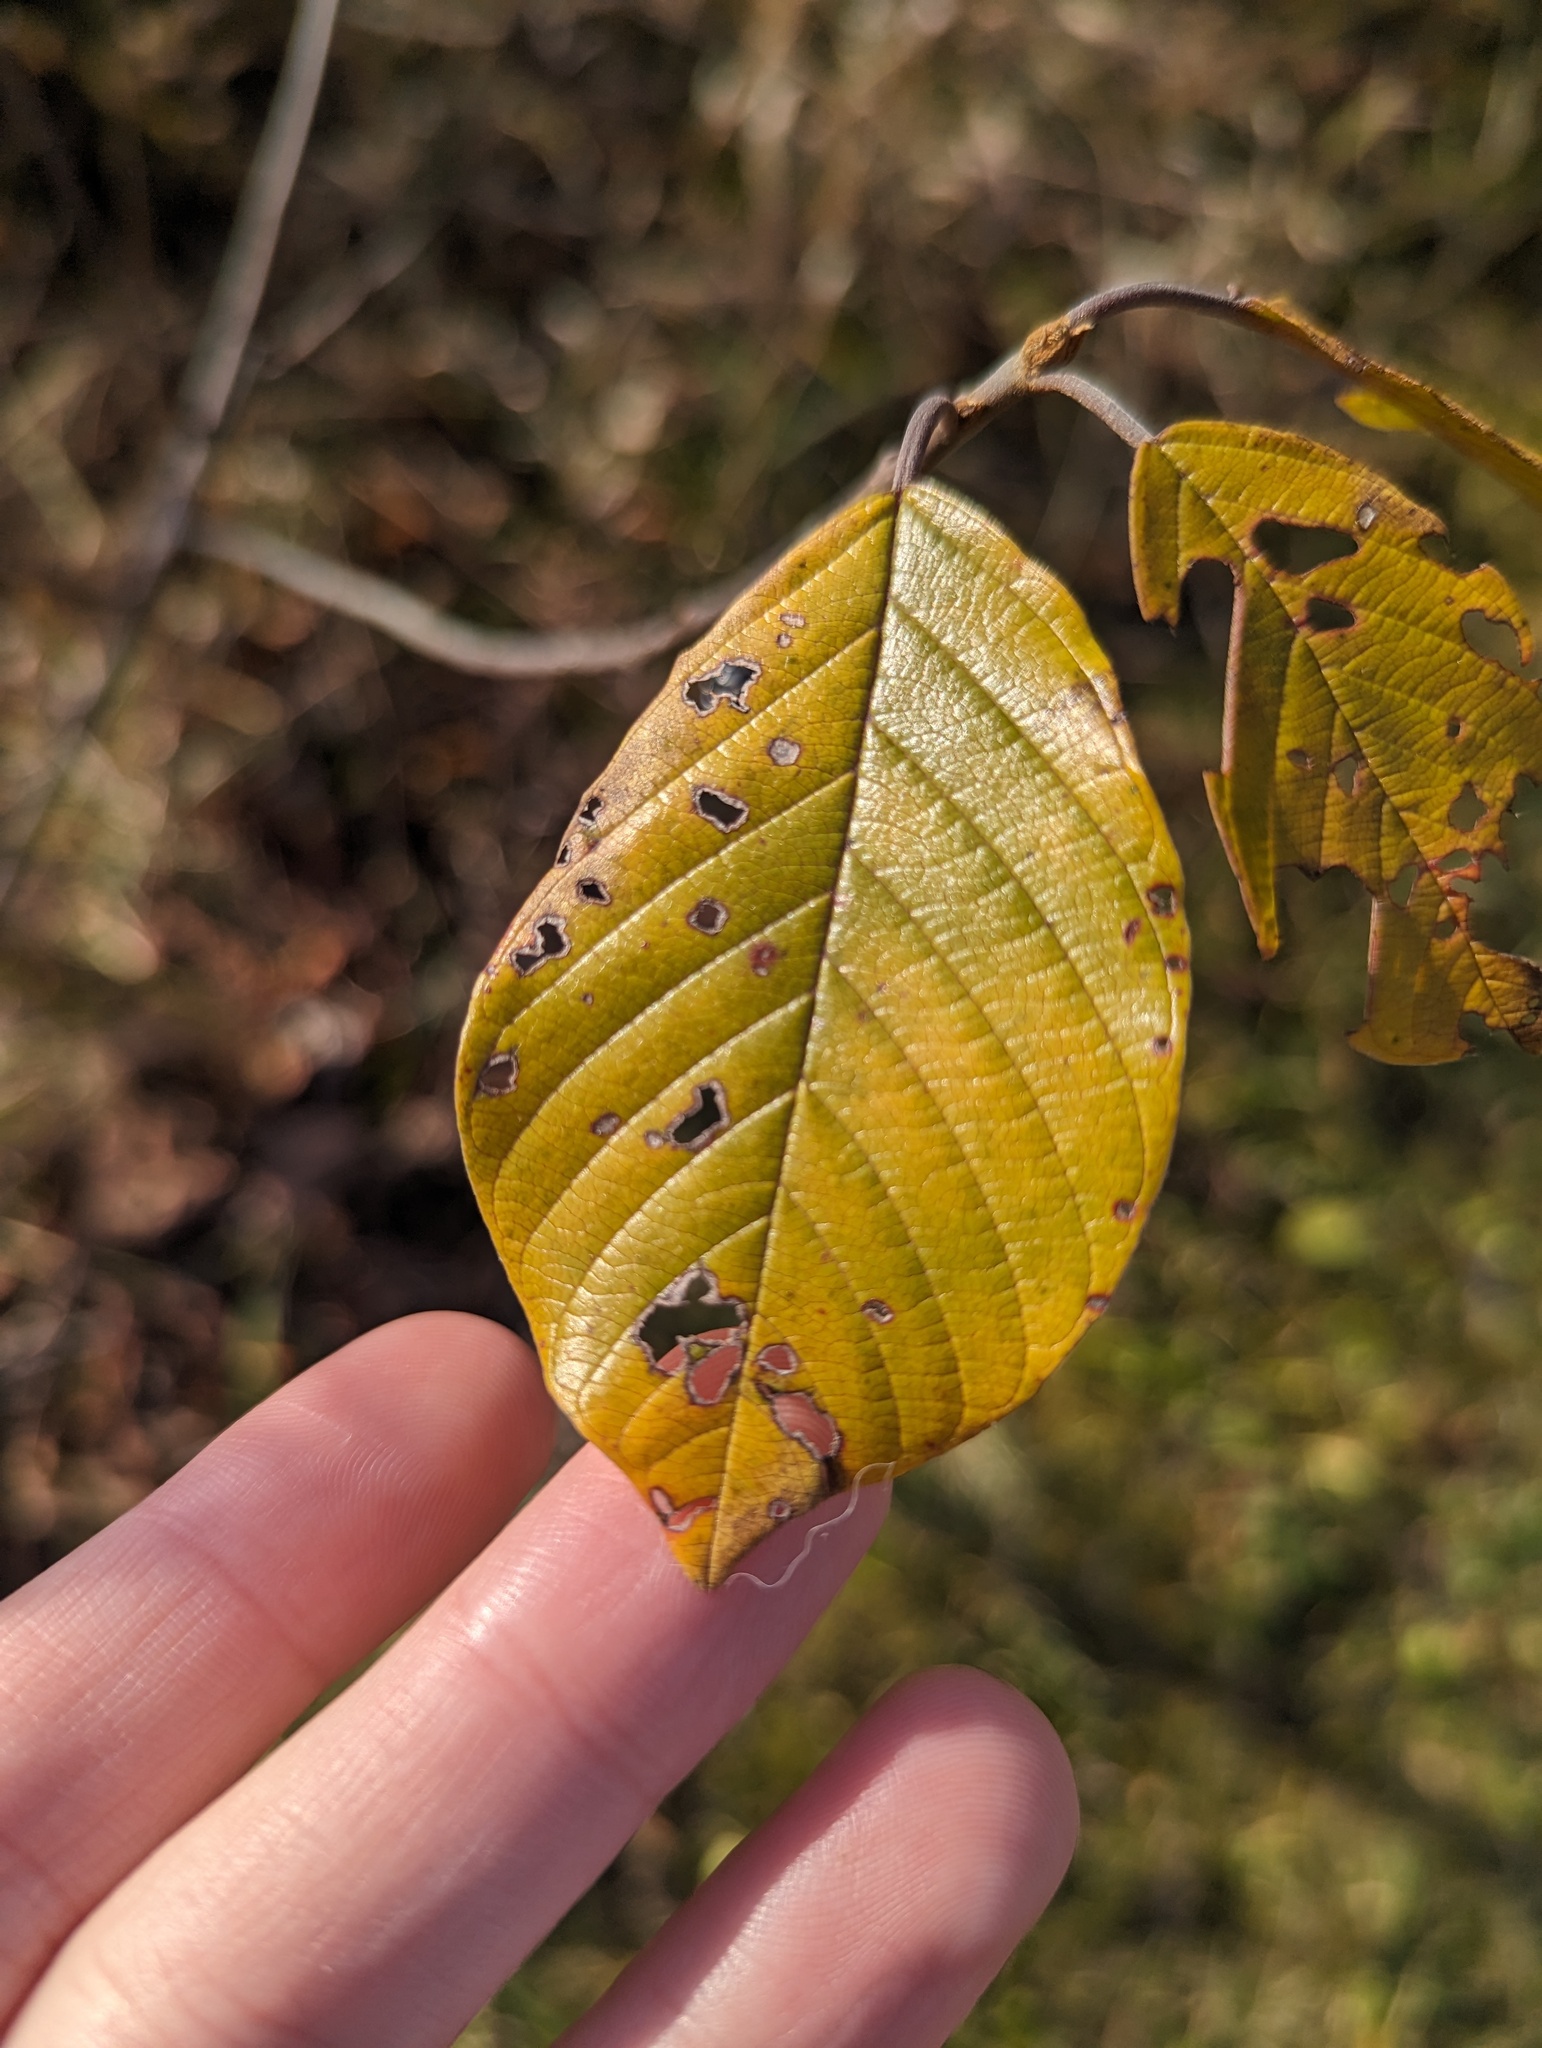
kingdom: Plantae
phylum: Tracheophyta
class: Magnoliopsida
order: Rosales
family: Rhamnaceae
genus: Frangula
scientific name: Frangula alnus
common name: Alder buckthorn
